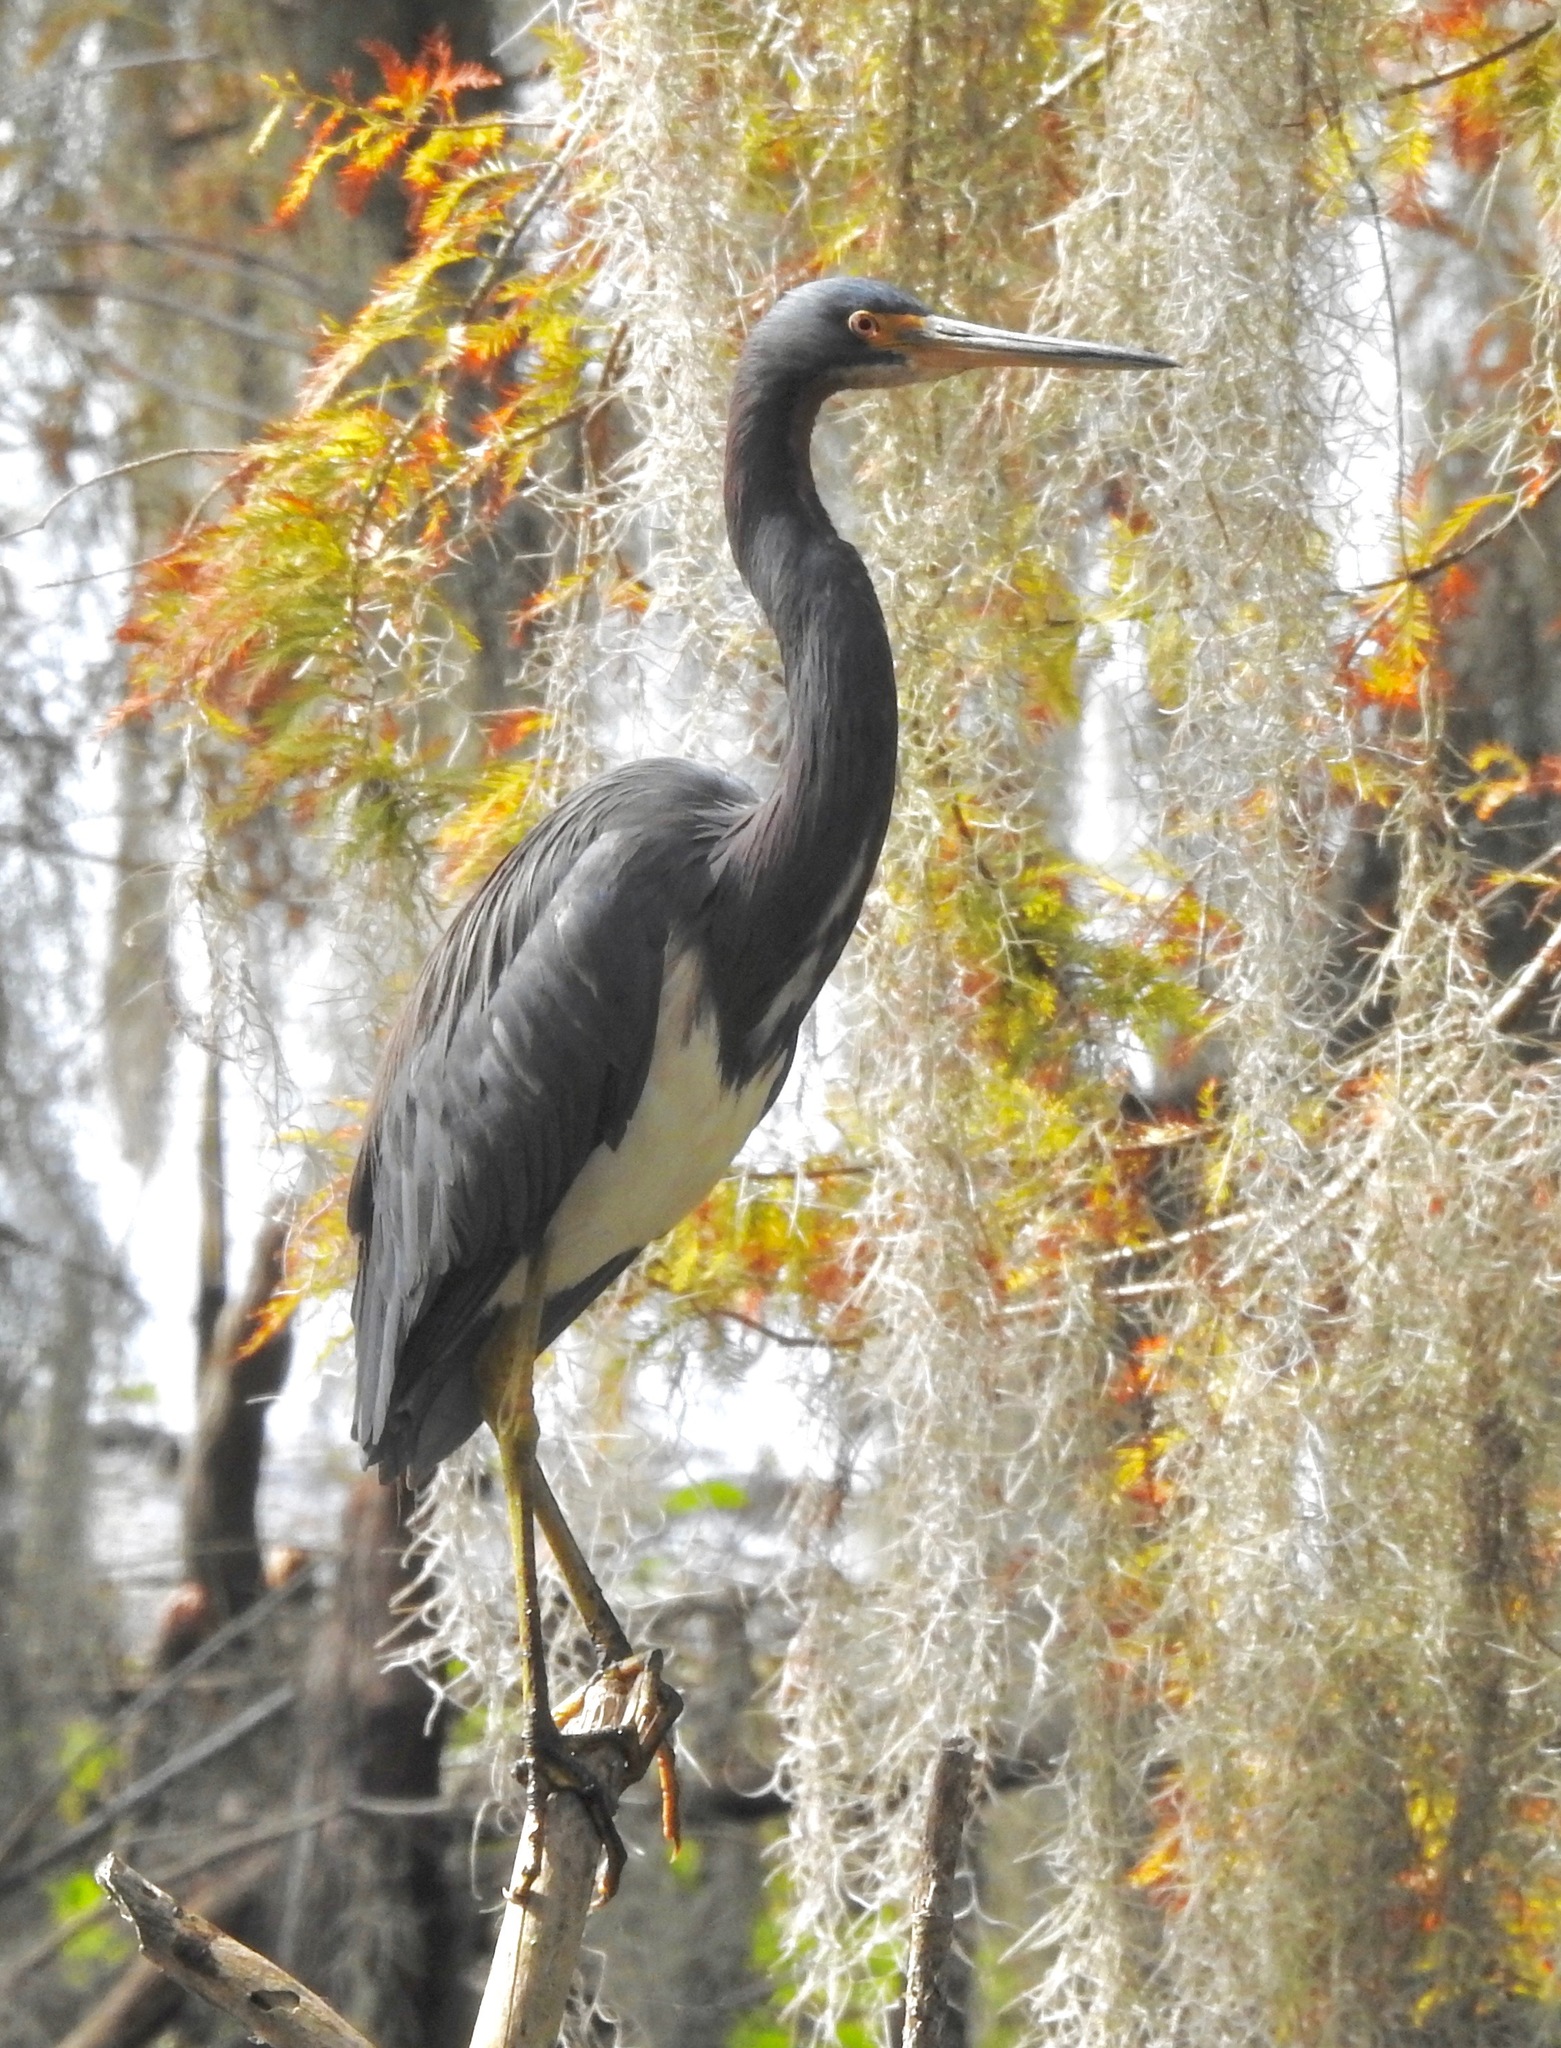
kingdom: Animalia
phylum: Chordata
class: Aves
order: Pelecaniformes
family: Ardeidae
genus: Egretta
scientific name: Egretta tricolor
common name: Tricolored heron
